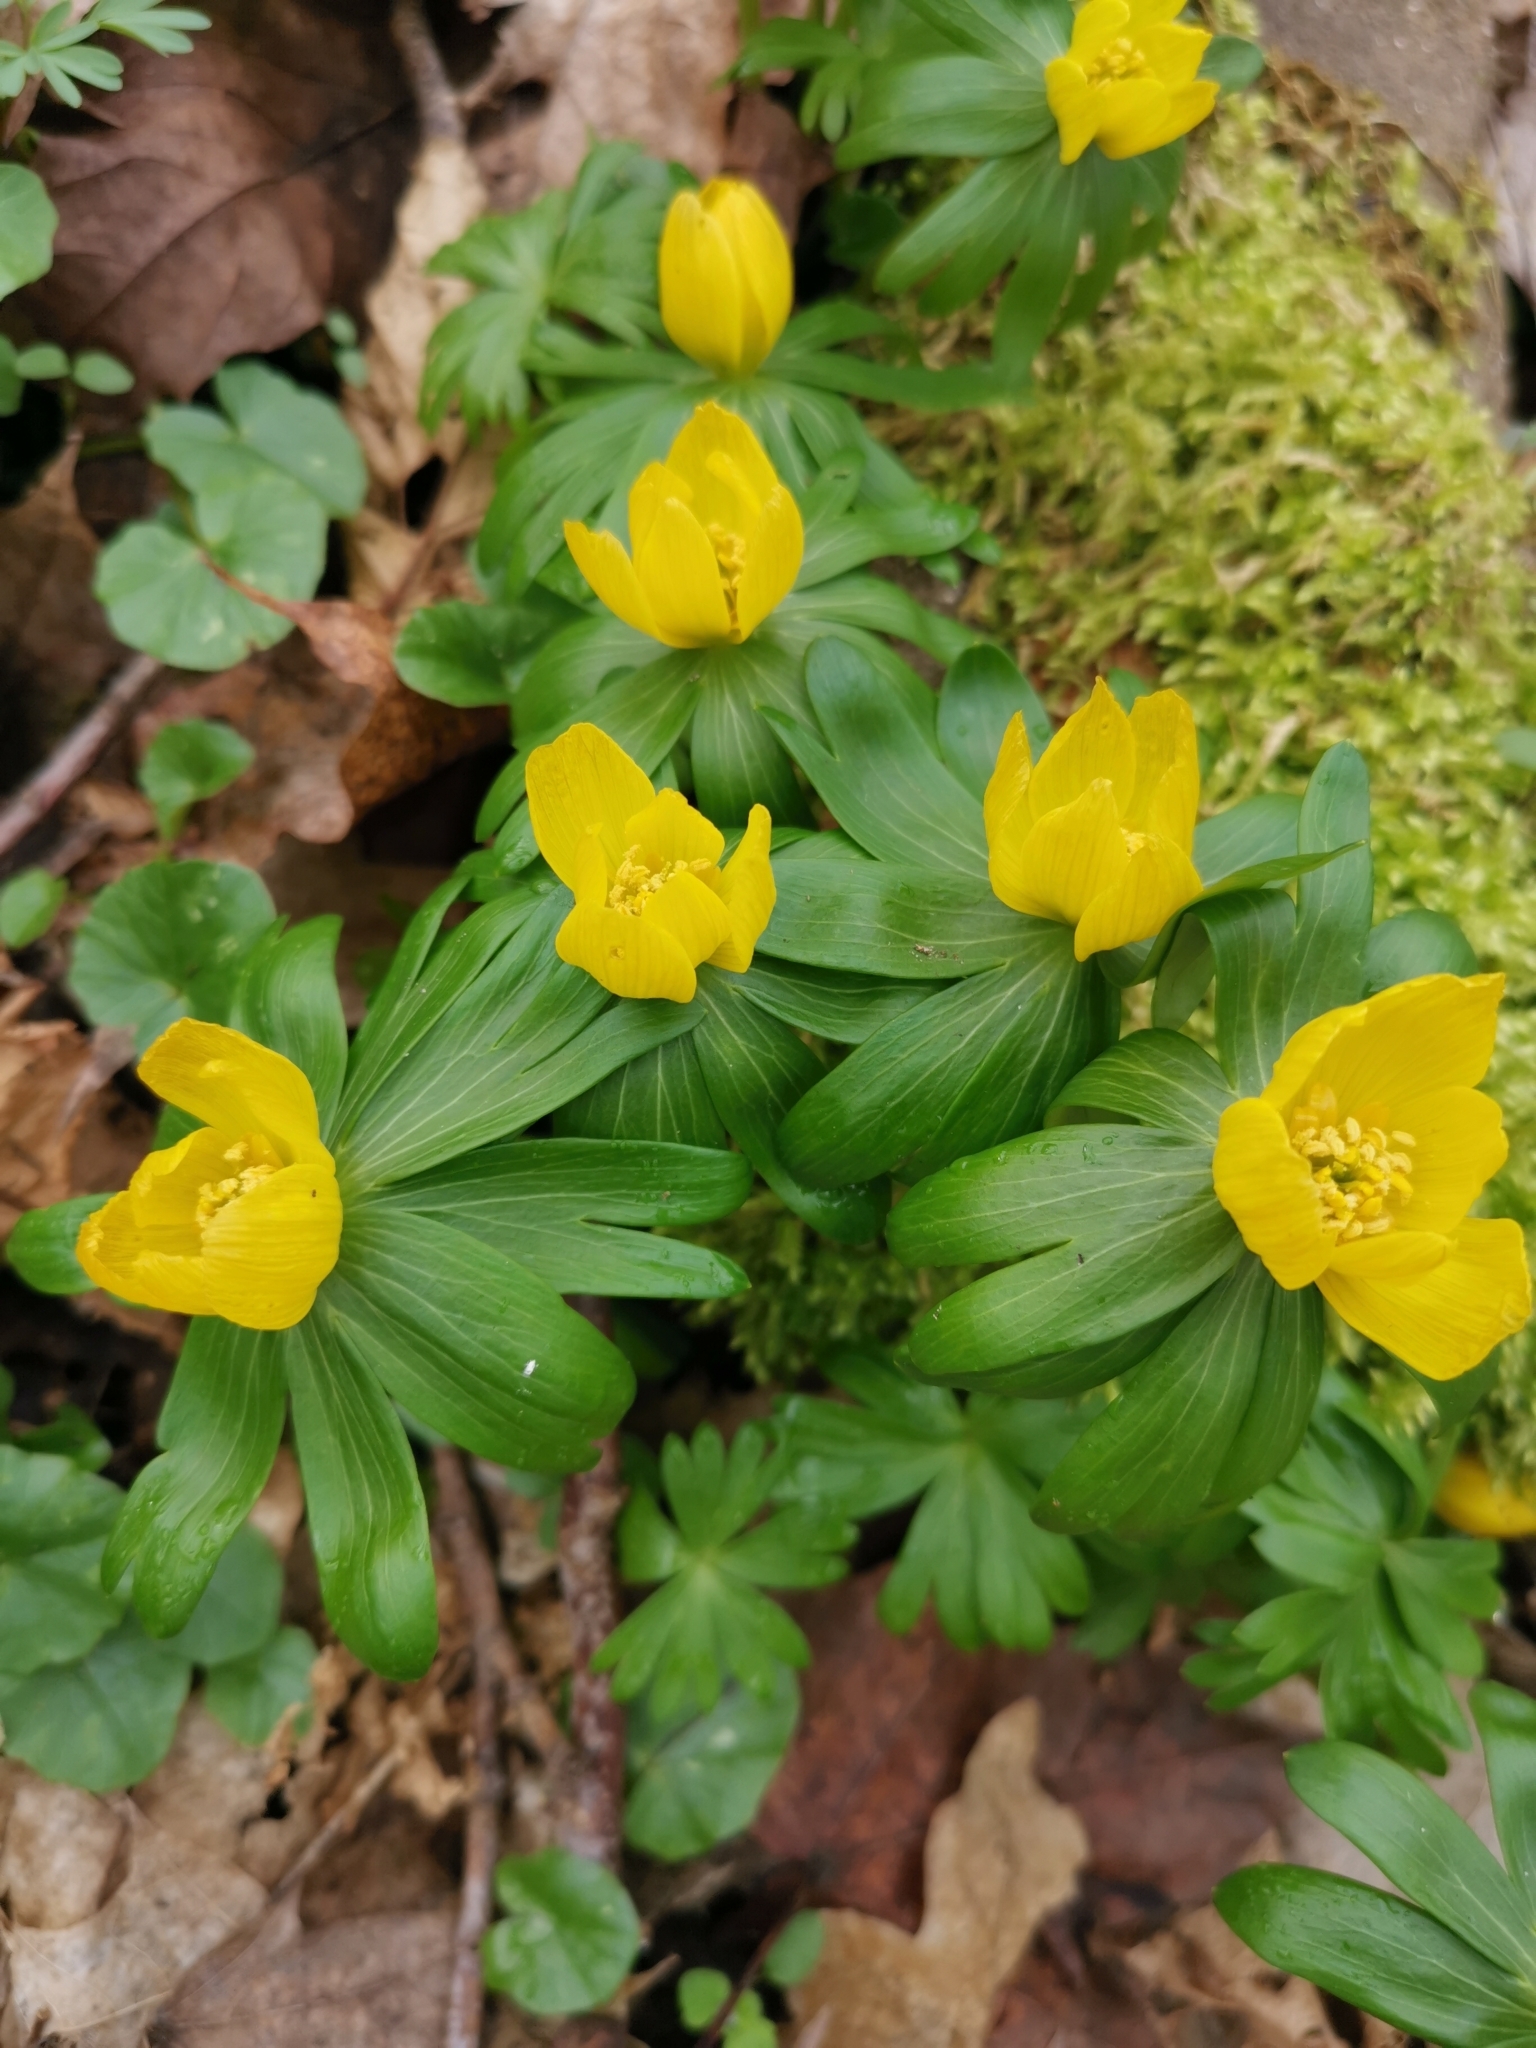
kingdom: Plantae
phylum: Tracheophyta
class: Magnoliopsida
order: Ranunculales
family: Ranunculaceae
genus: Eranthis
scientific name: Eranthis hyemalis
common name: Winter aconite
